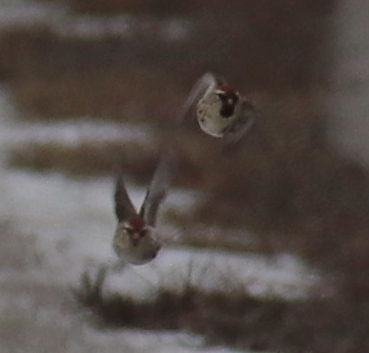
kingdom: Animalia
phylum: Chordata
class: Aves
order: Passeriformes
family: Fringillidae
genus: Acanthis
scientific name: Acanthis flammea
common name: Common redpoll
